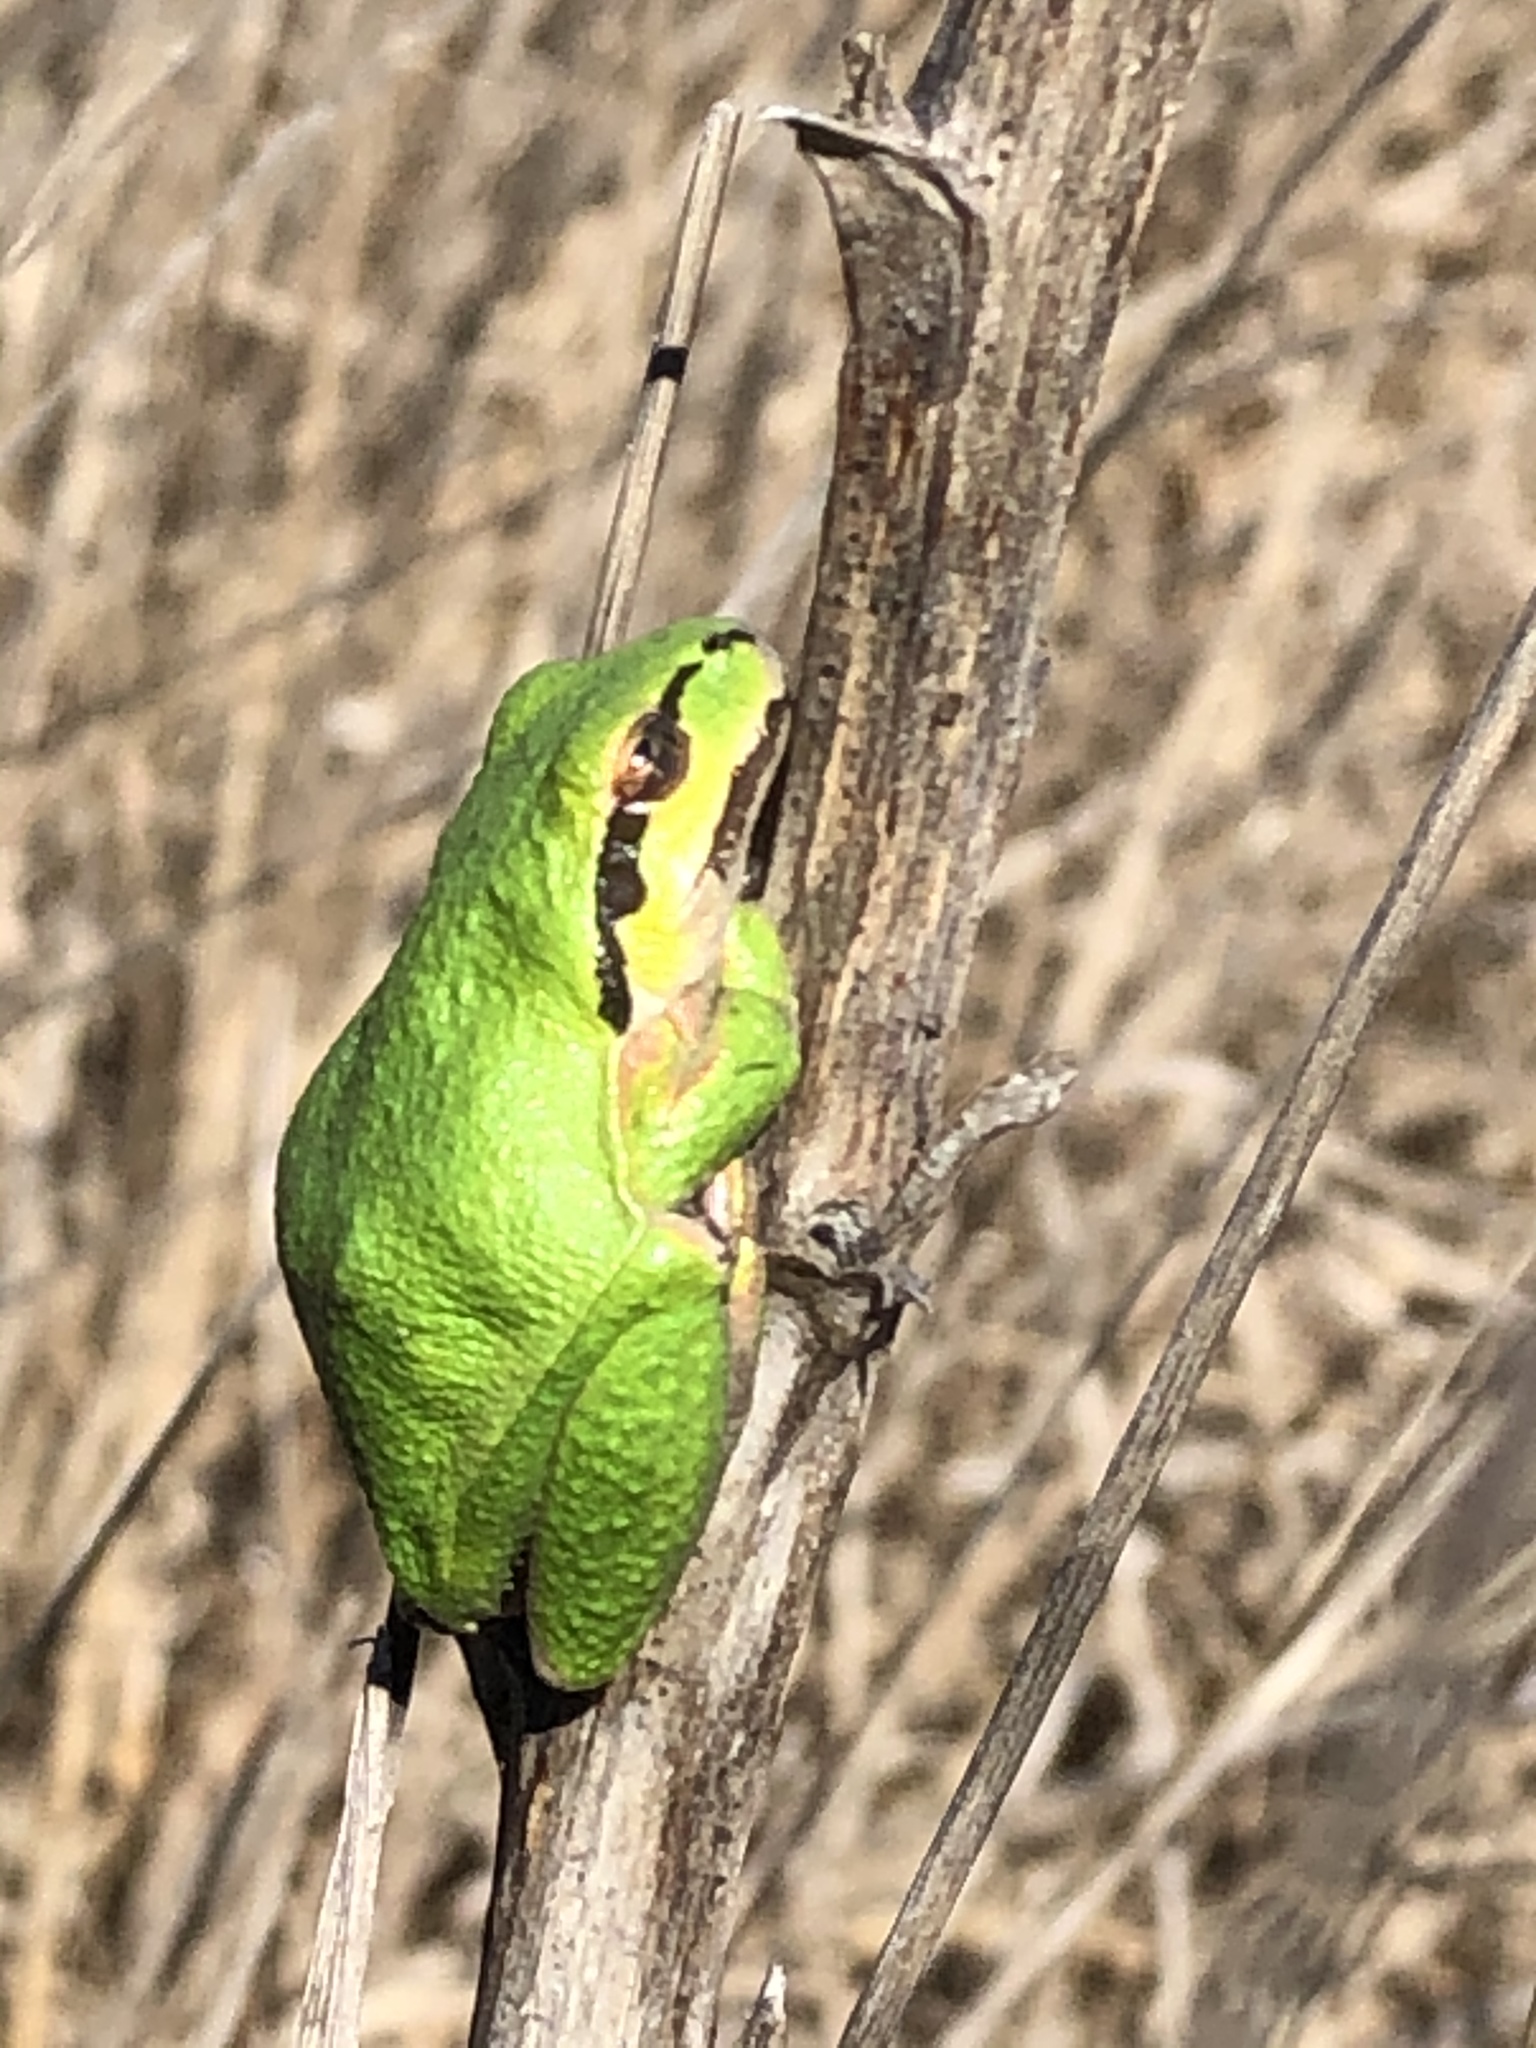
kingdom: Animalia
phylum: Chordata
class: Amphibia
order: Anura
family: Hylidae
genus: Pseudacris
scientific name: Pseudacris regilla
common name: Pacific chorus frog
